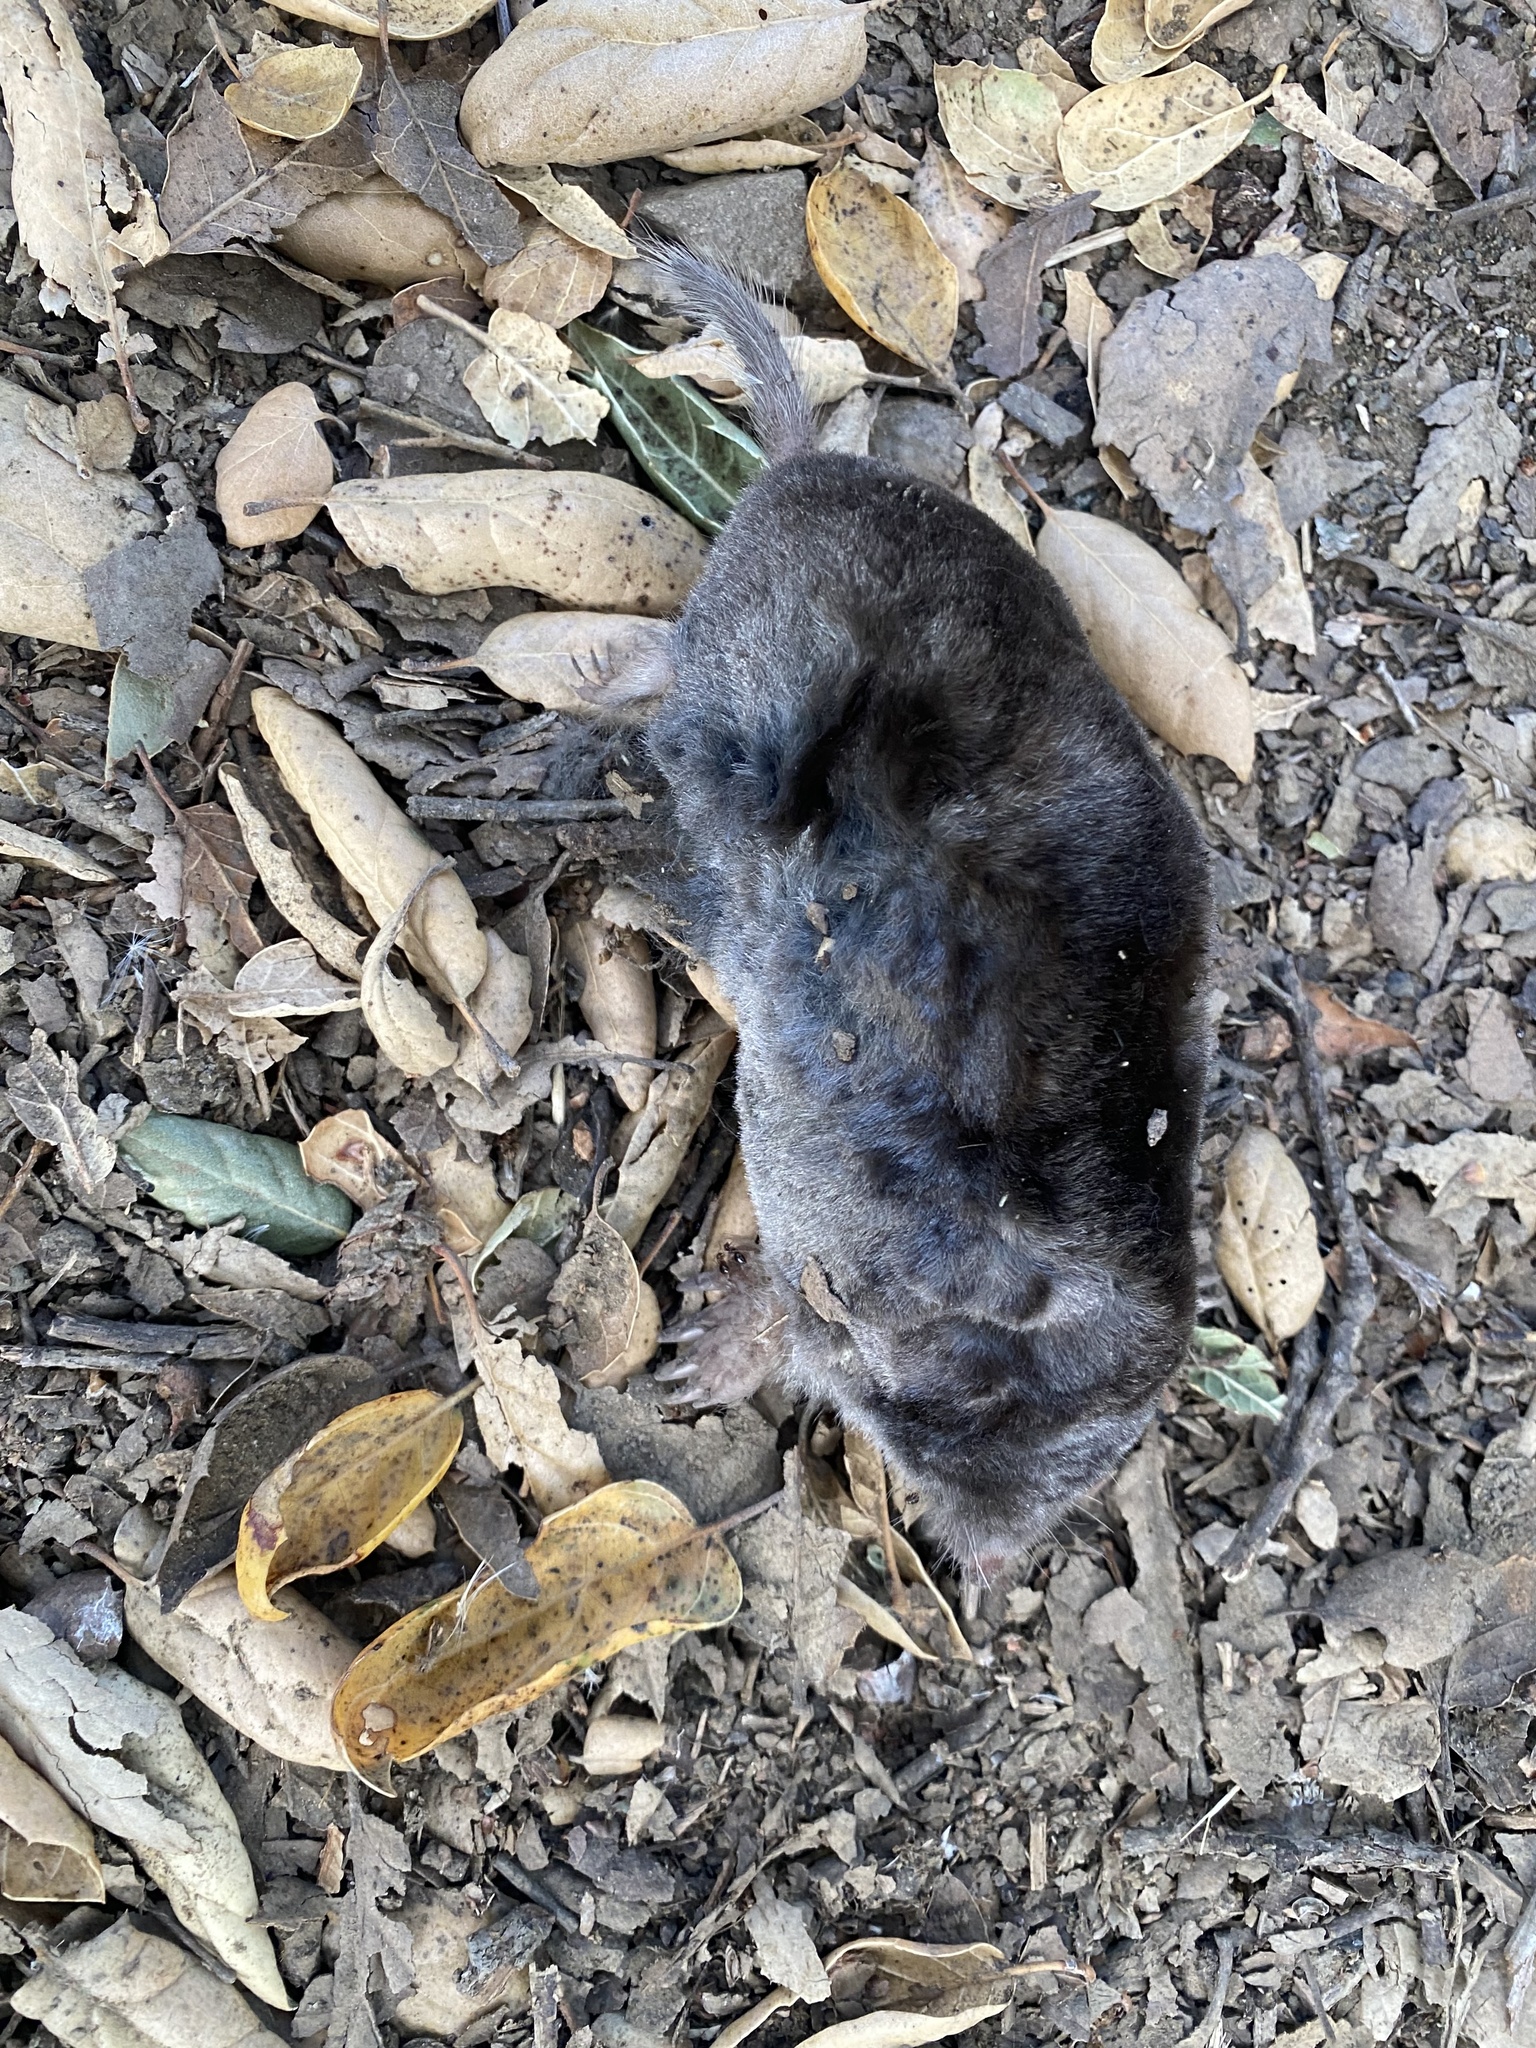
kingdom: Animalia
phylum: Chordata
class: Mammalia
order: Soricomorpha
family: Talpidae
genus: Scapanus
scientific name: Scapanus latimanus
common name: Broad-footed mole
